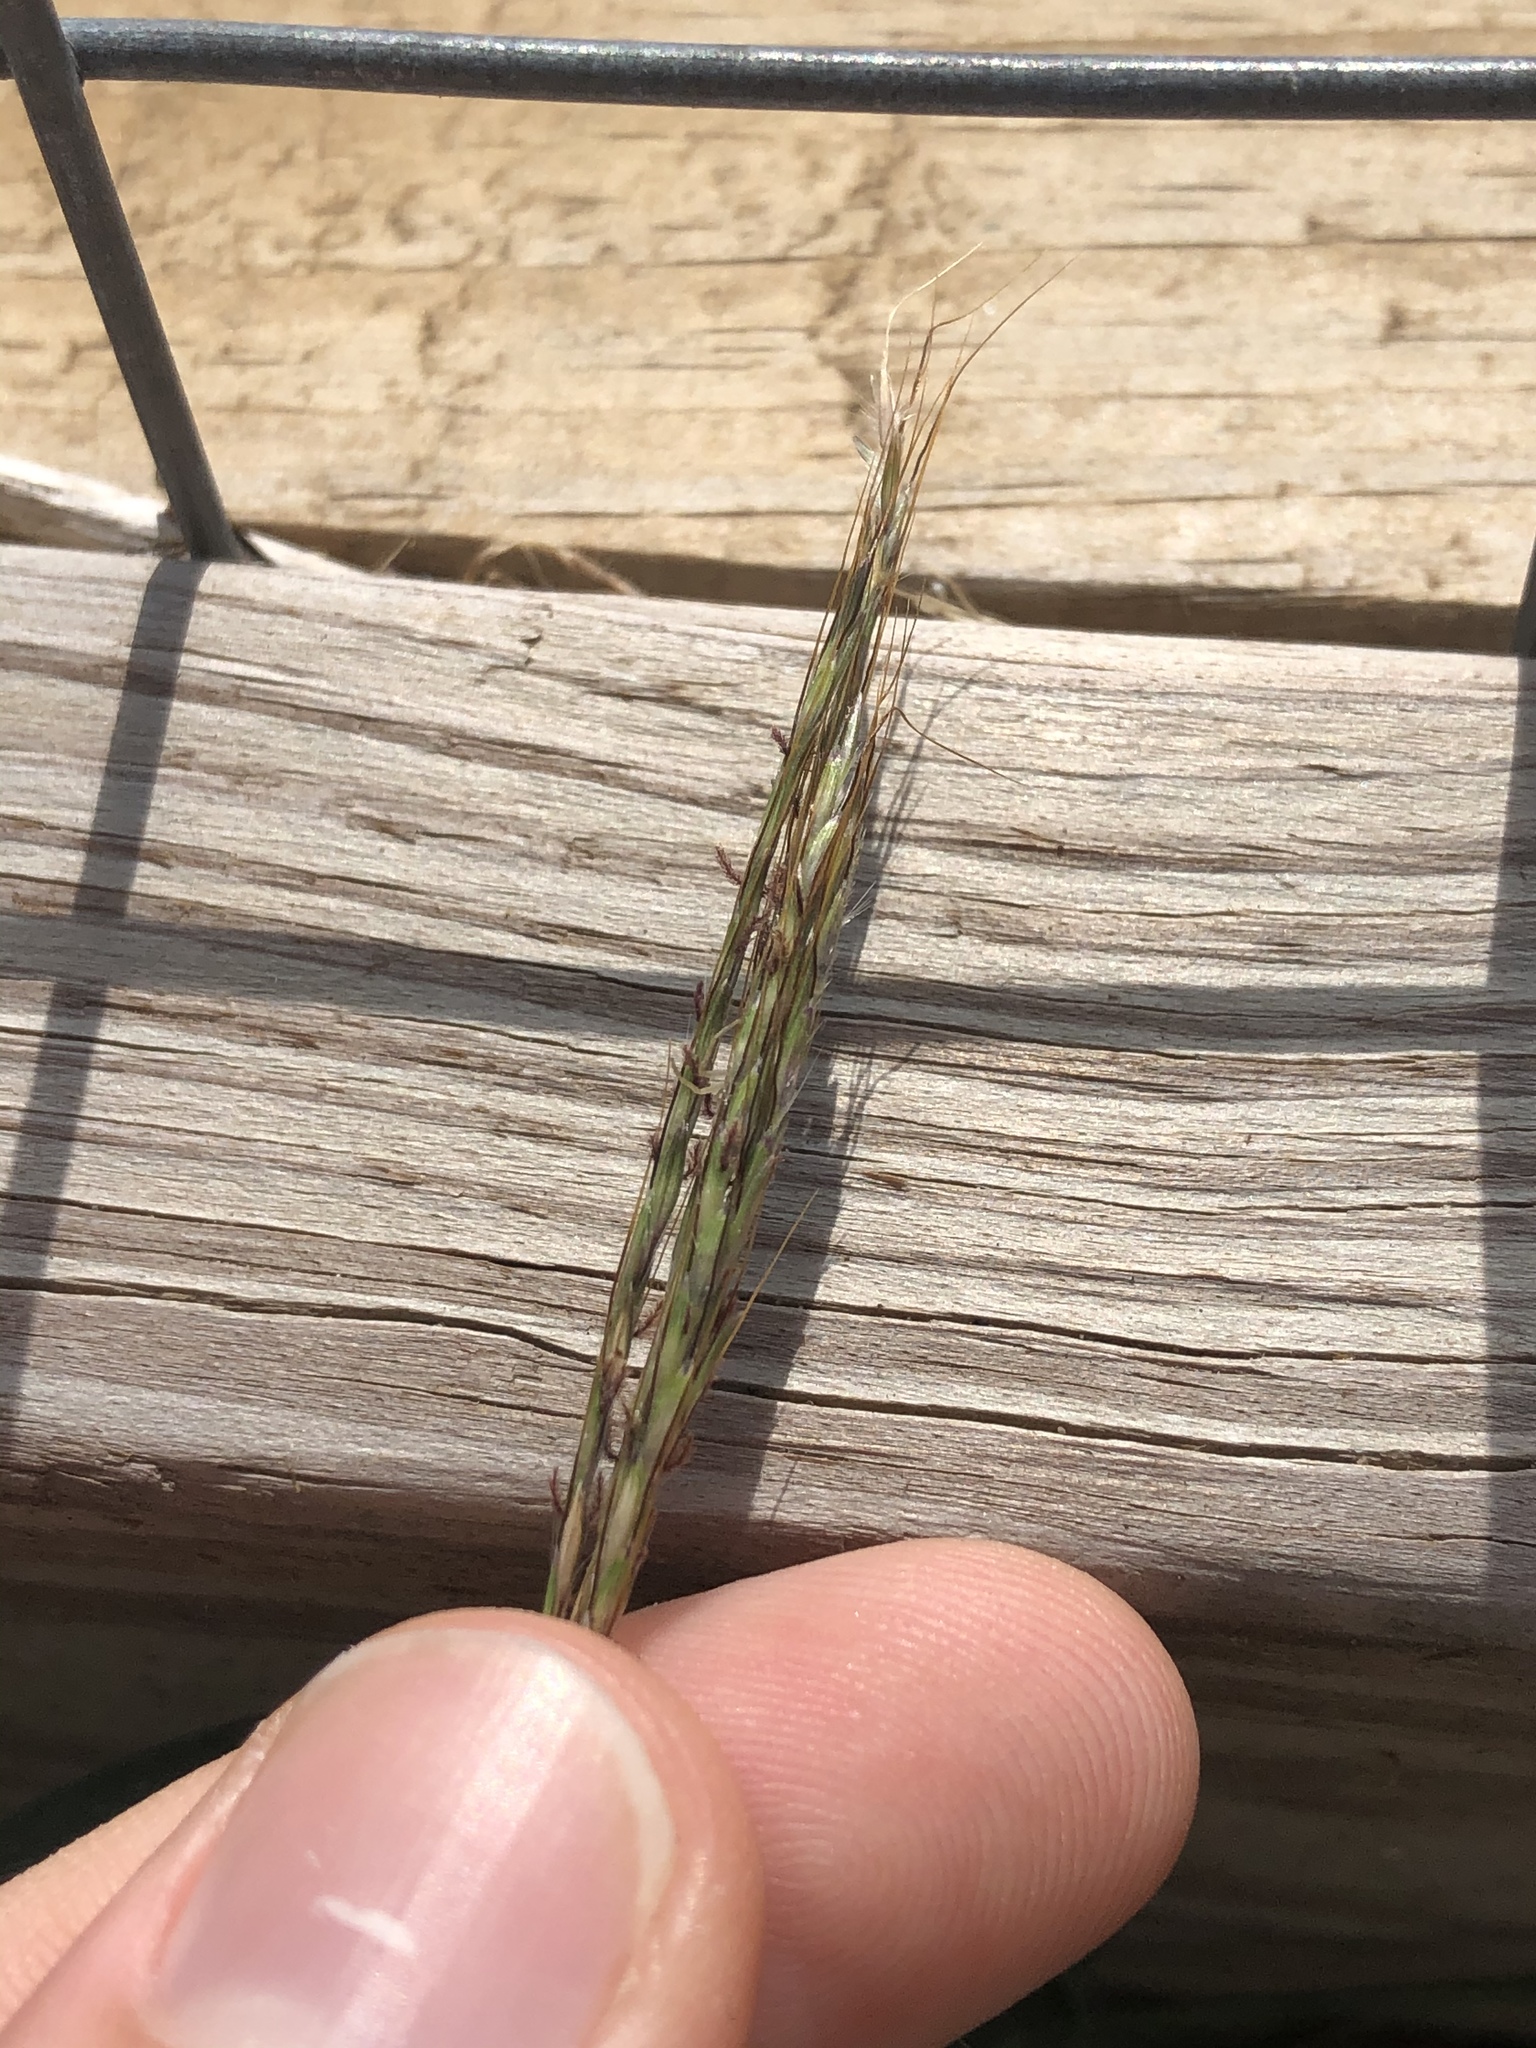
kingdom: Plantae
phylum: Tracheophyta
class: Liliopsida
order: Poales
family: Poaceae
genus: Bothriochloa
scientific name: Bothriochloa ischaemum
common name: Yellow bluestem
